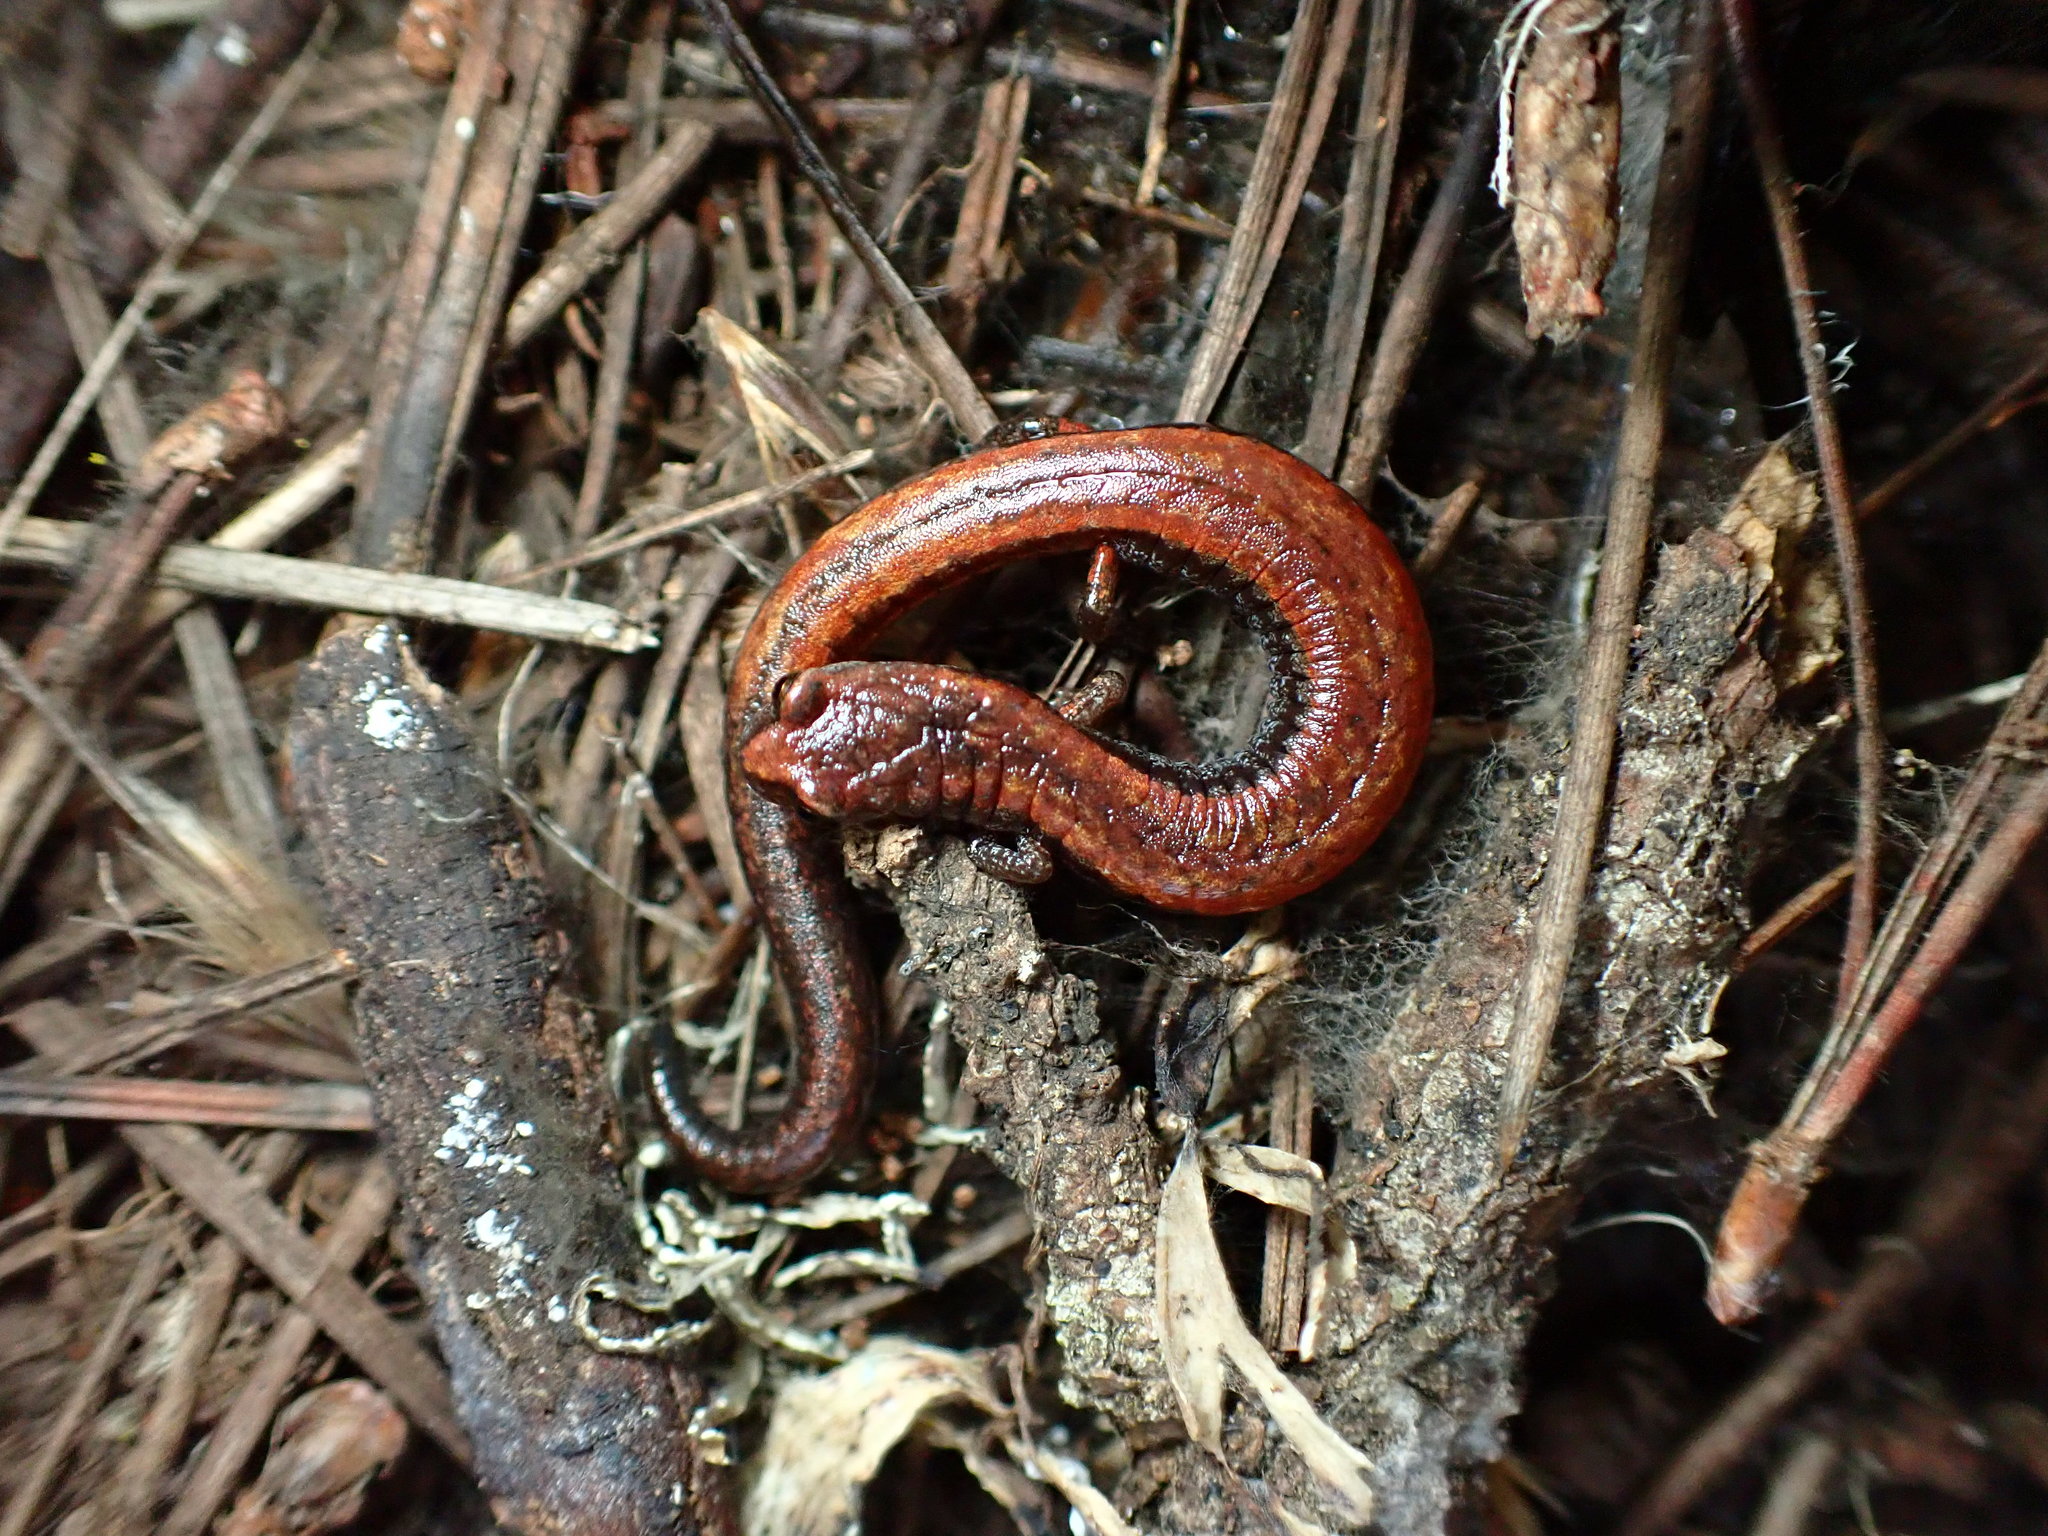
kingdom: Animalia
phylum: Chordata
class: Amphibia
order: Caudata
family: Plethodontidae
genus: Batrachoseps
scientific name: Batrachoseps attenuatus
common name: California slender salamander
